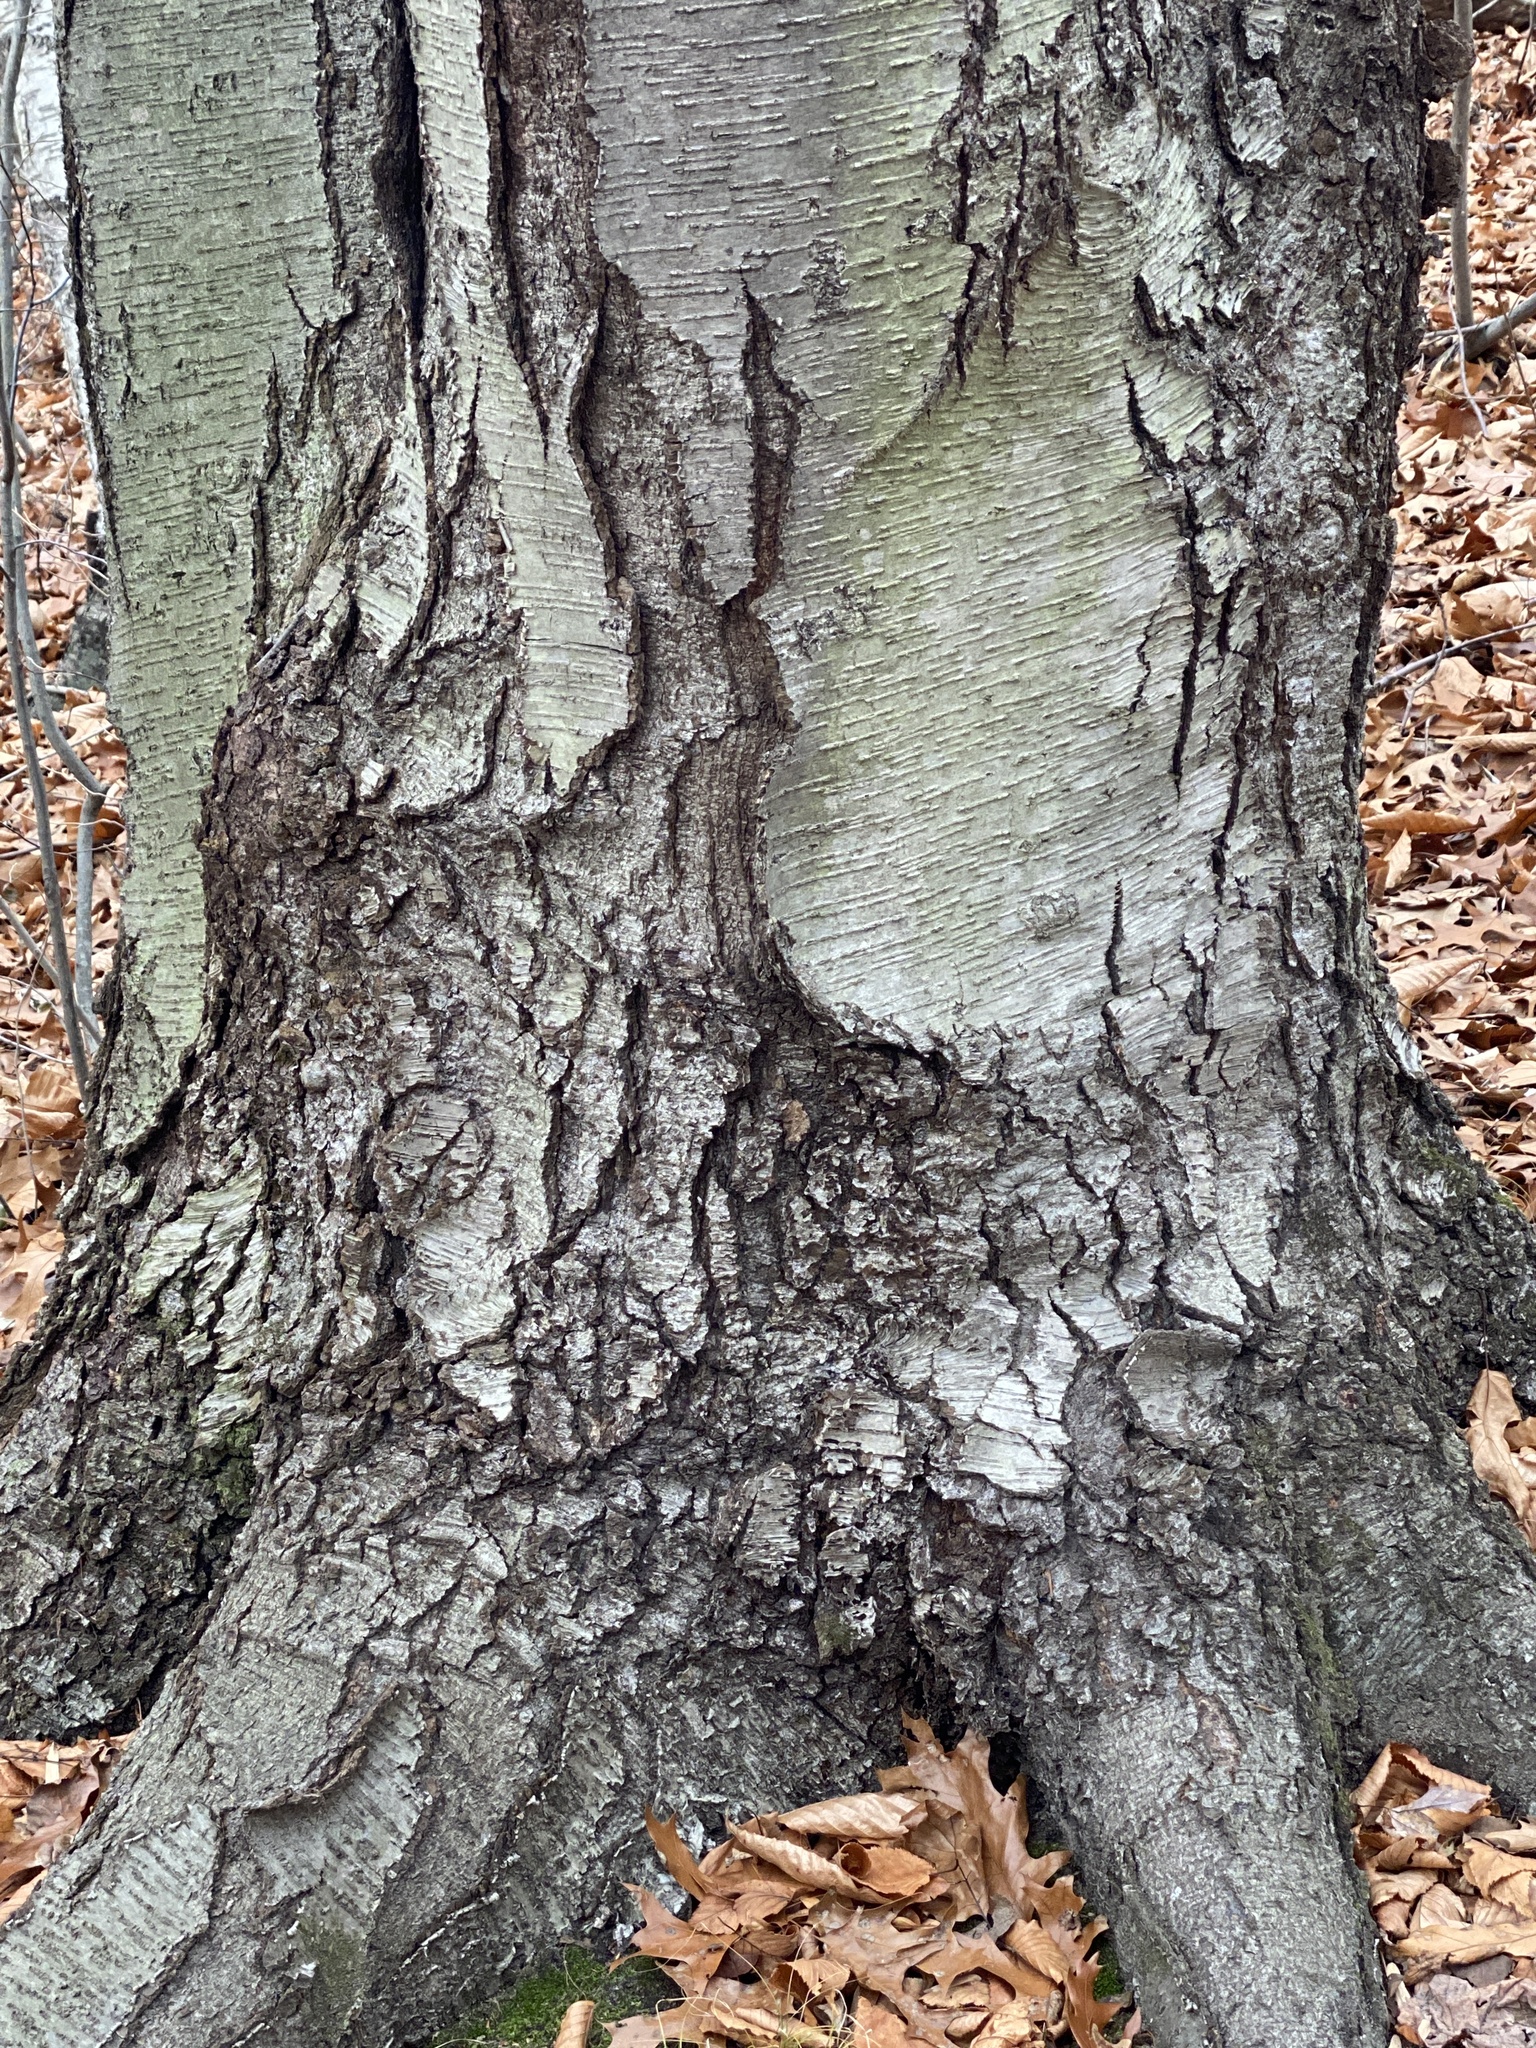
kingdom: Plantae
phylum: Tracheophyta
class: Magnoliopsida
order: Fagales
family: Betulaceae
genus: Betula
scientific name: Betula lenta
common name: Black birch
